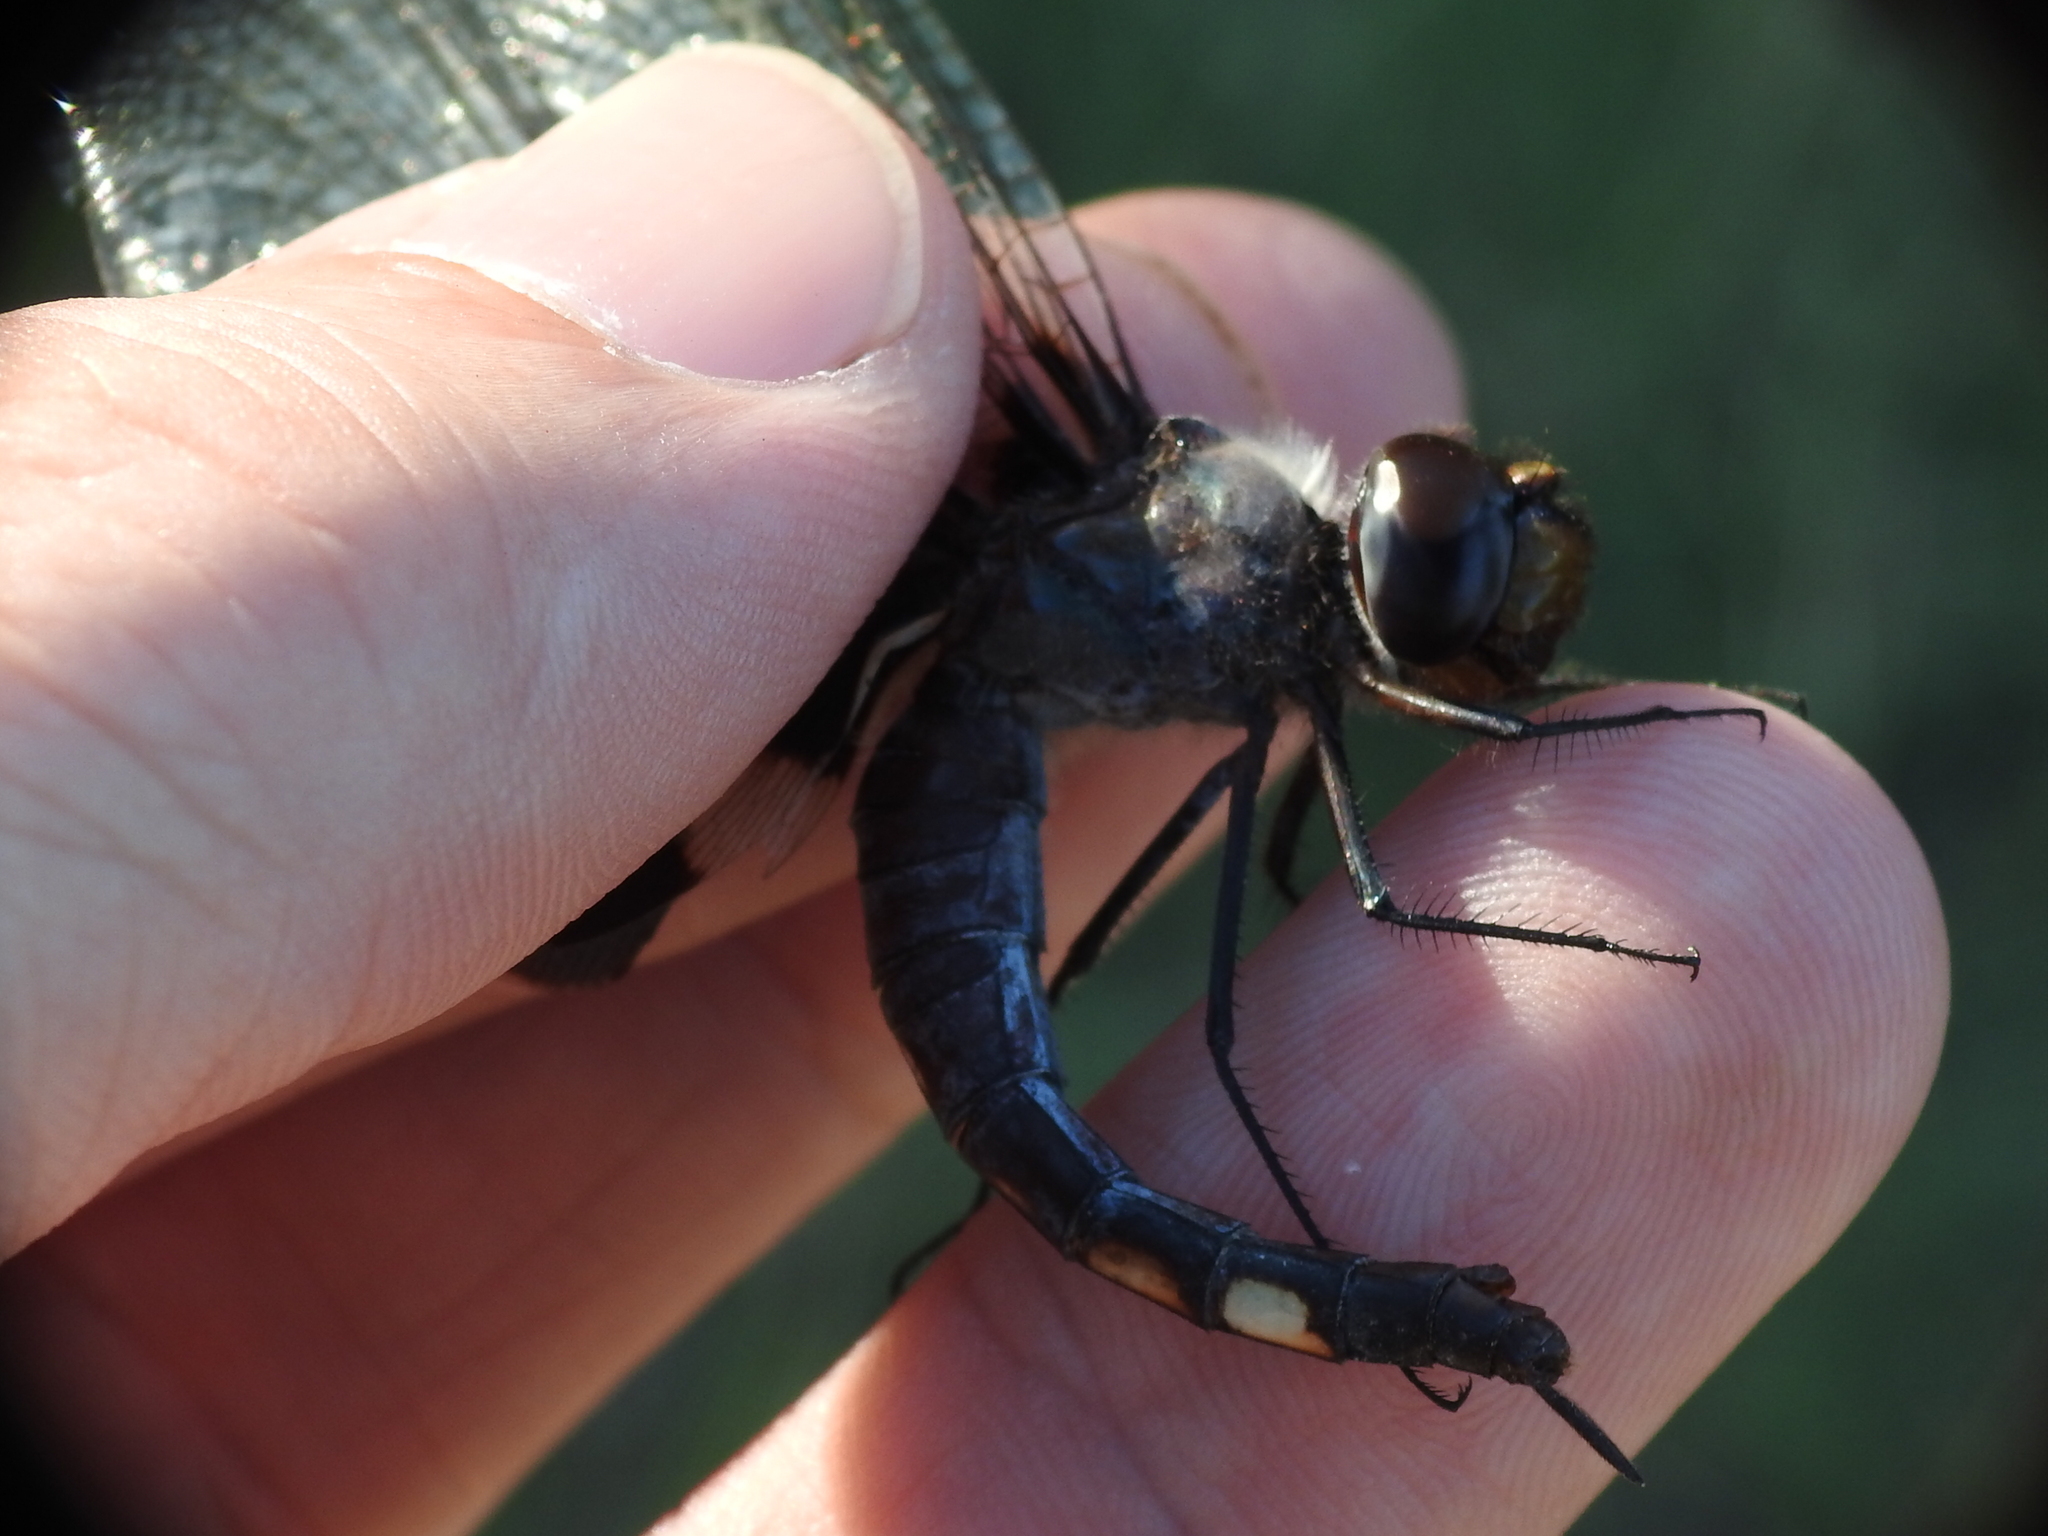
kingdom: Animalia
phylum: Arthropoda
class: Insecta
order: Odonata
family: Libellulidae
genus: Tramea
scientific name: Tramea lacerata
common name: Black saddlebags
